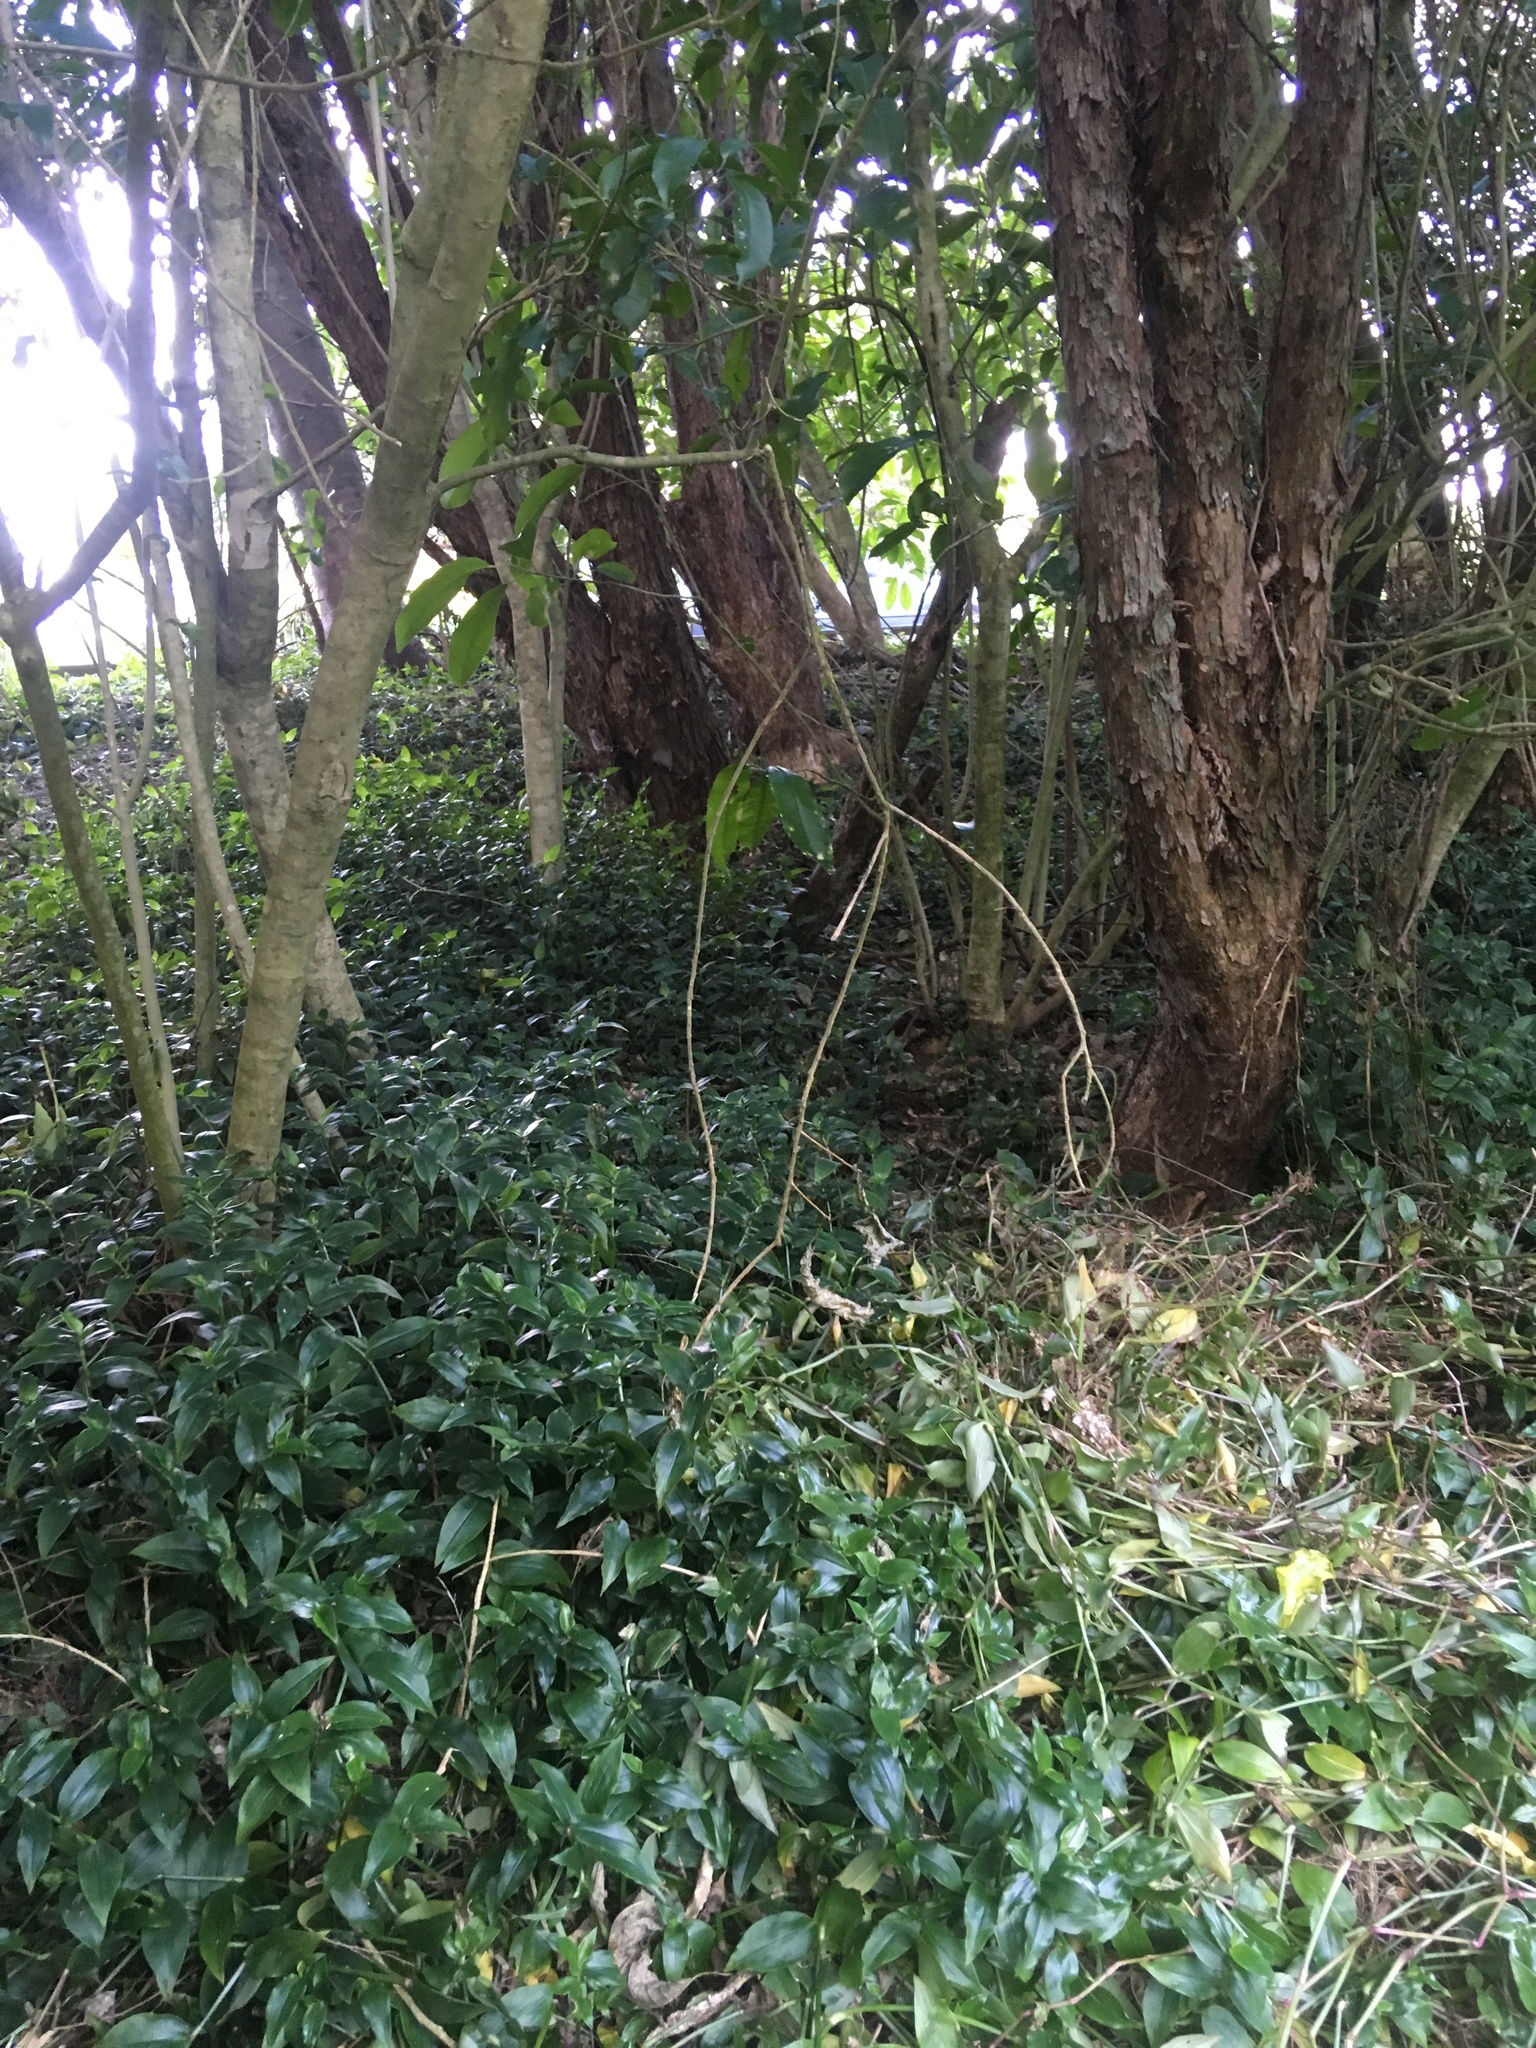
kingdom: Plantae
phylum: Tracheophyta
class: Liliopsida
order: Commelinales
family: Commelinaceae
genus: Tradescantia
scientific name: Tradescantia fluminensis
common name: Wandering-jew
